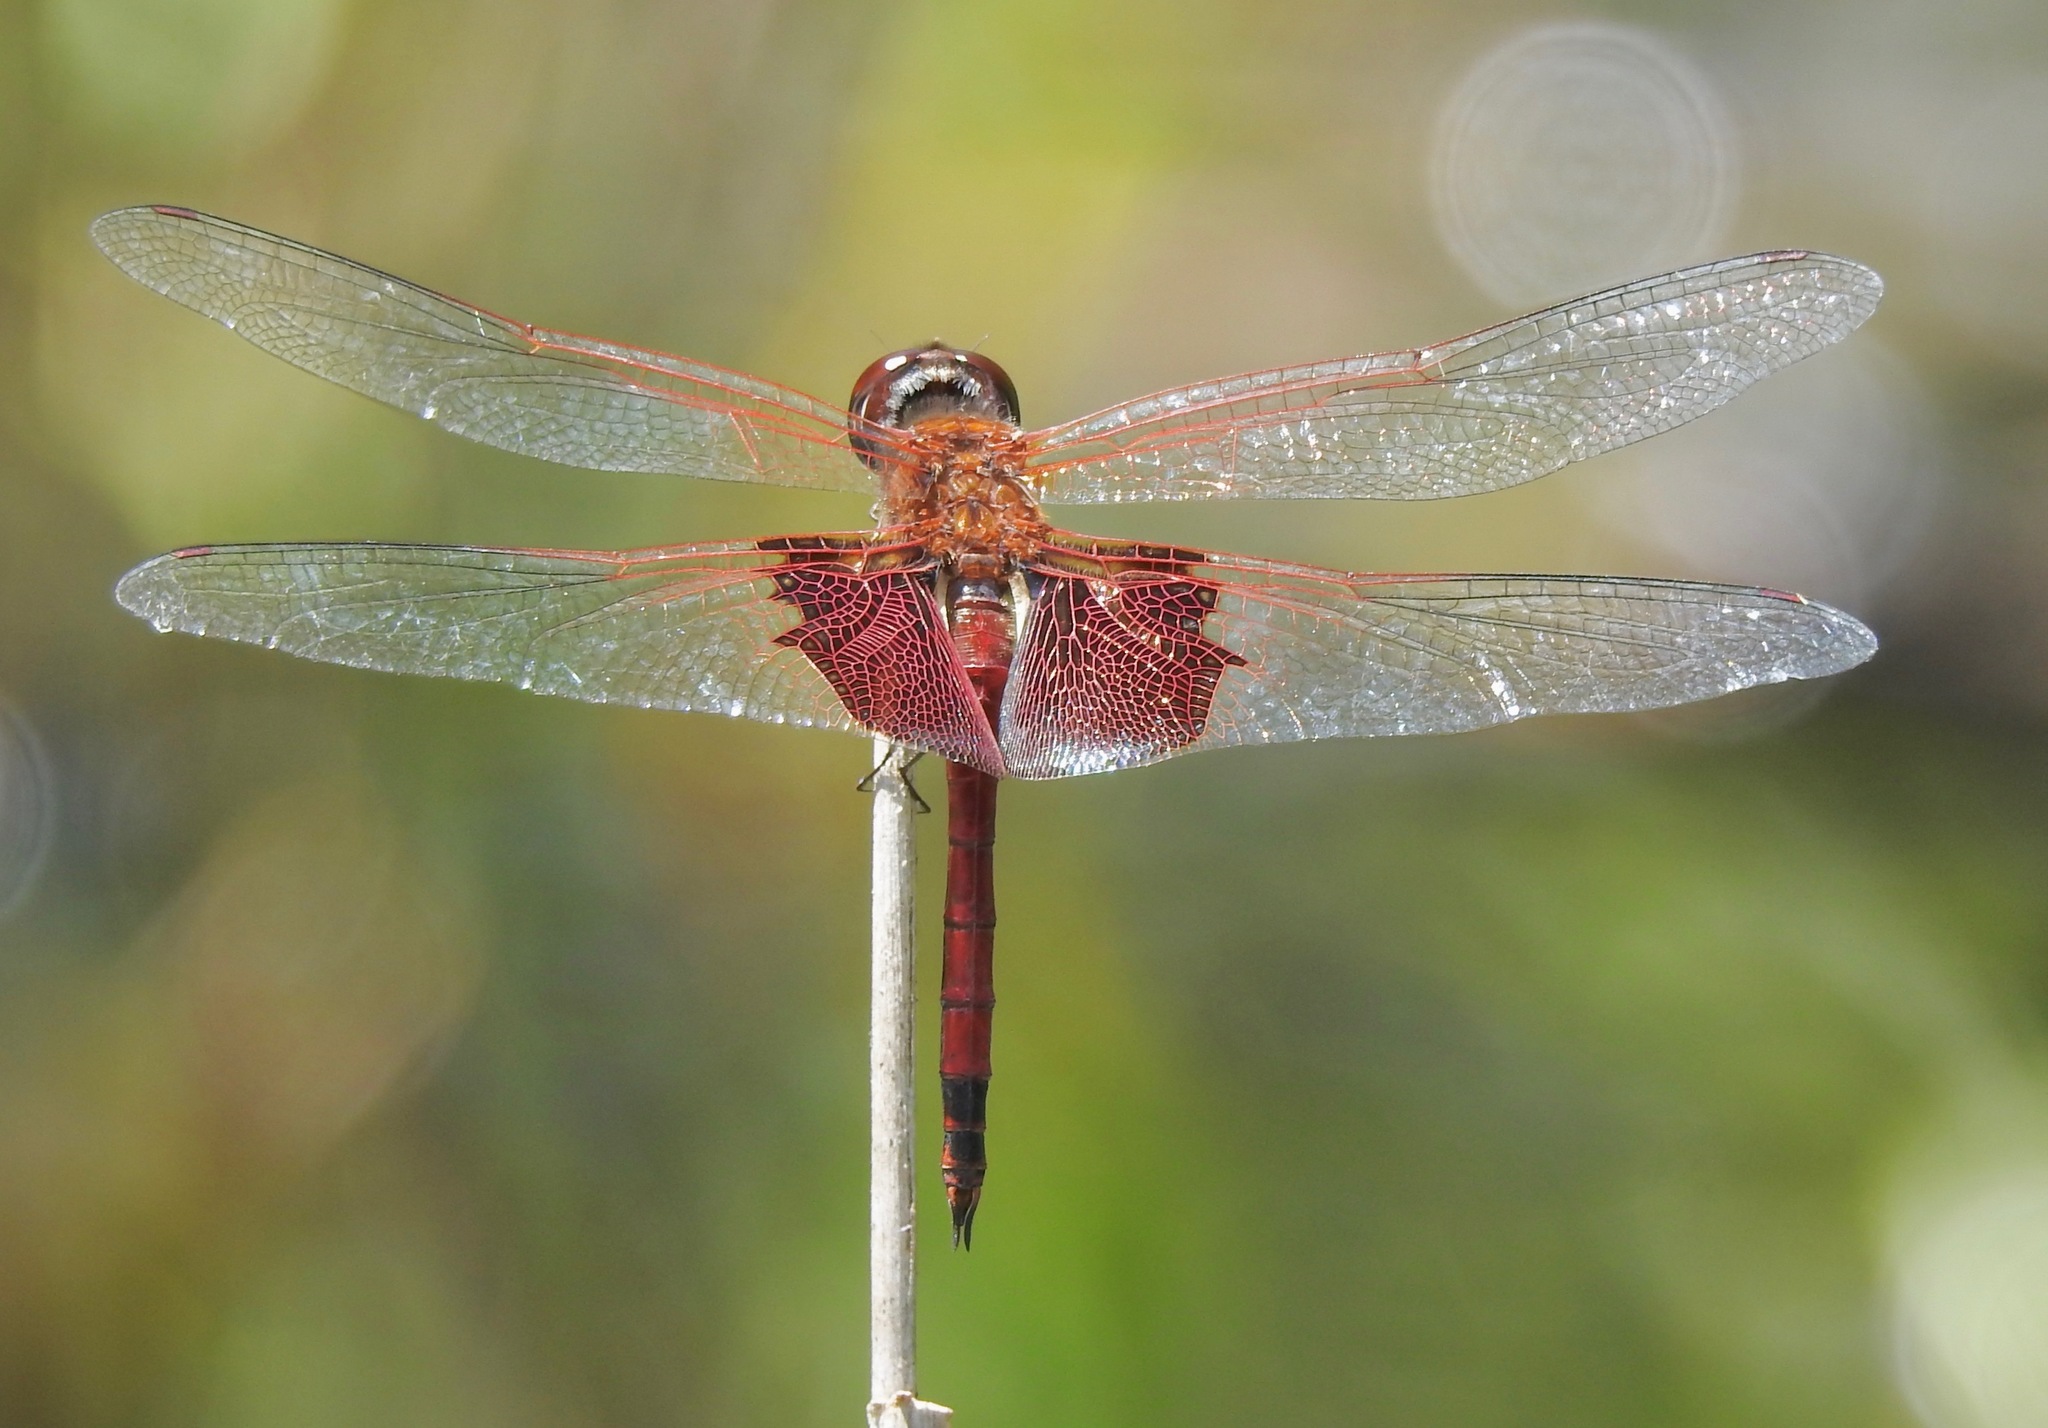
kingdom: Animalia
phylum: Arthropoda
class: Insecta
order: Odonata
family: Libellulidae
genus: Tramea
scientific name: Tramea carolina
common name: Carolina saddlebags
